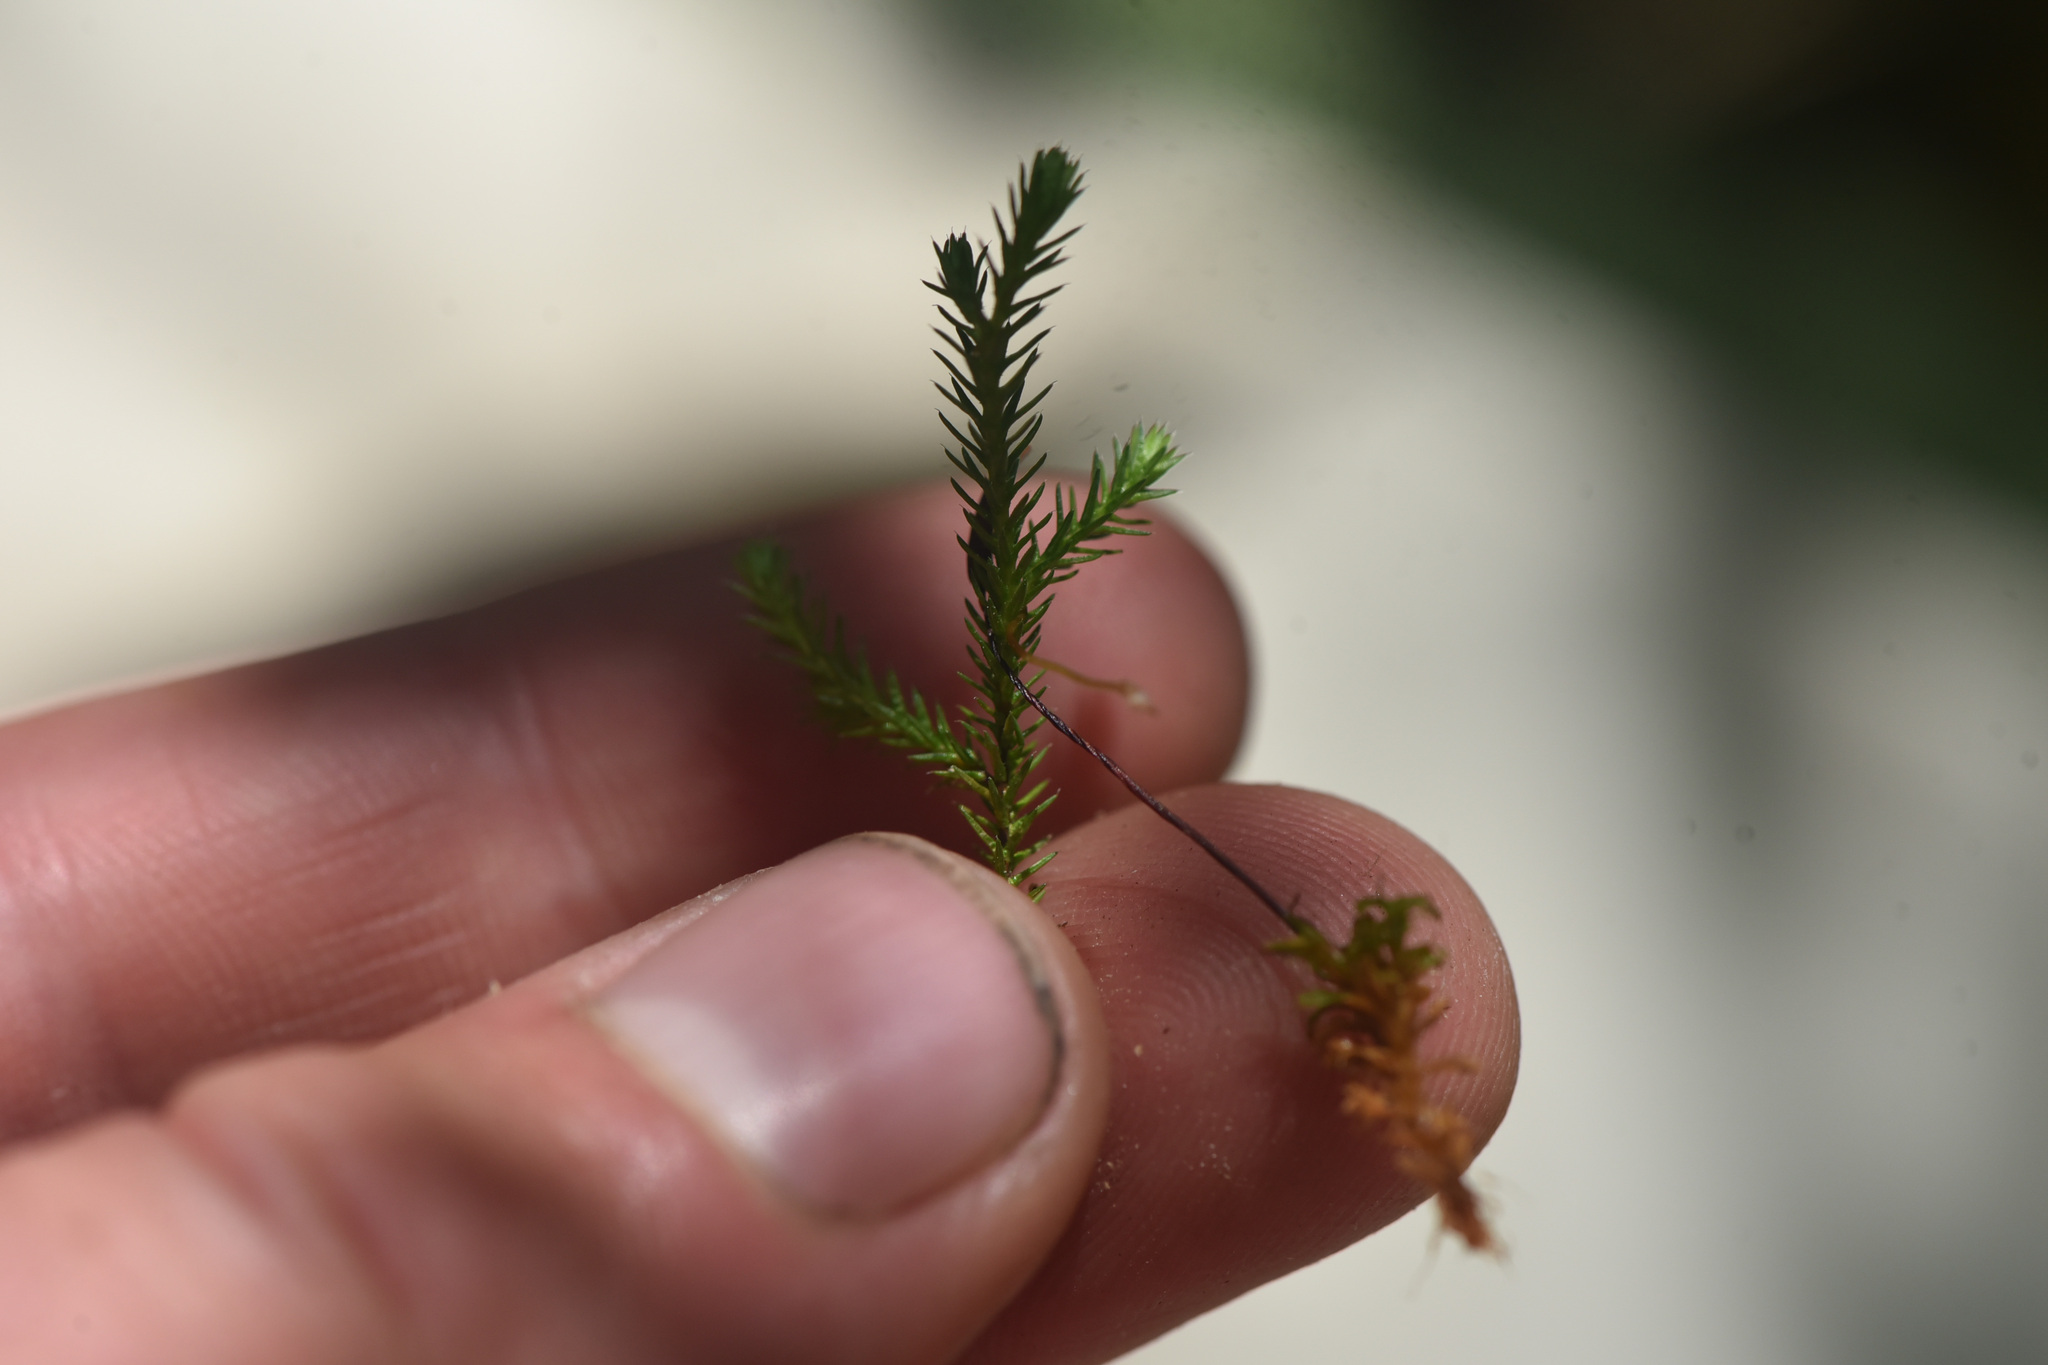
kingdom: Plantae
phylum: Tracheophyta
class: Lycopodiopsida
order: Selaginellales
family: Selaginellaceae
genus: Selaginella
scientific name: Selaginella wallacei
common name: Wallace's selaginella
